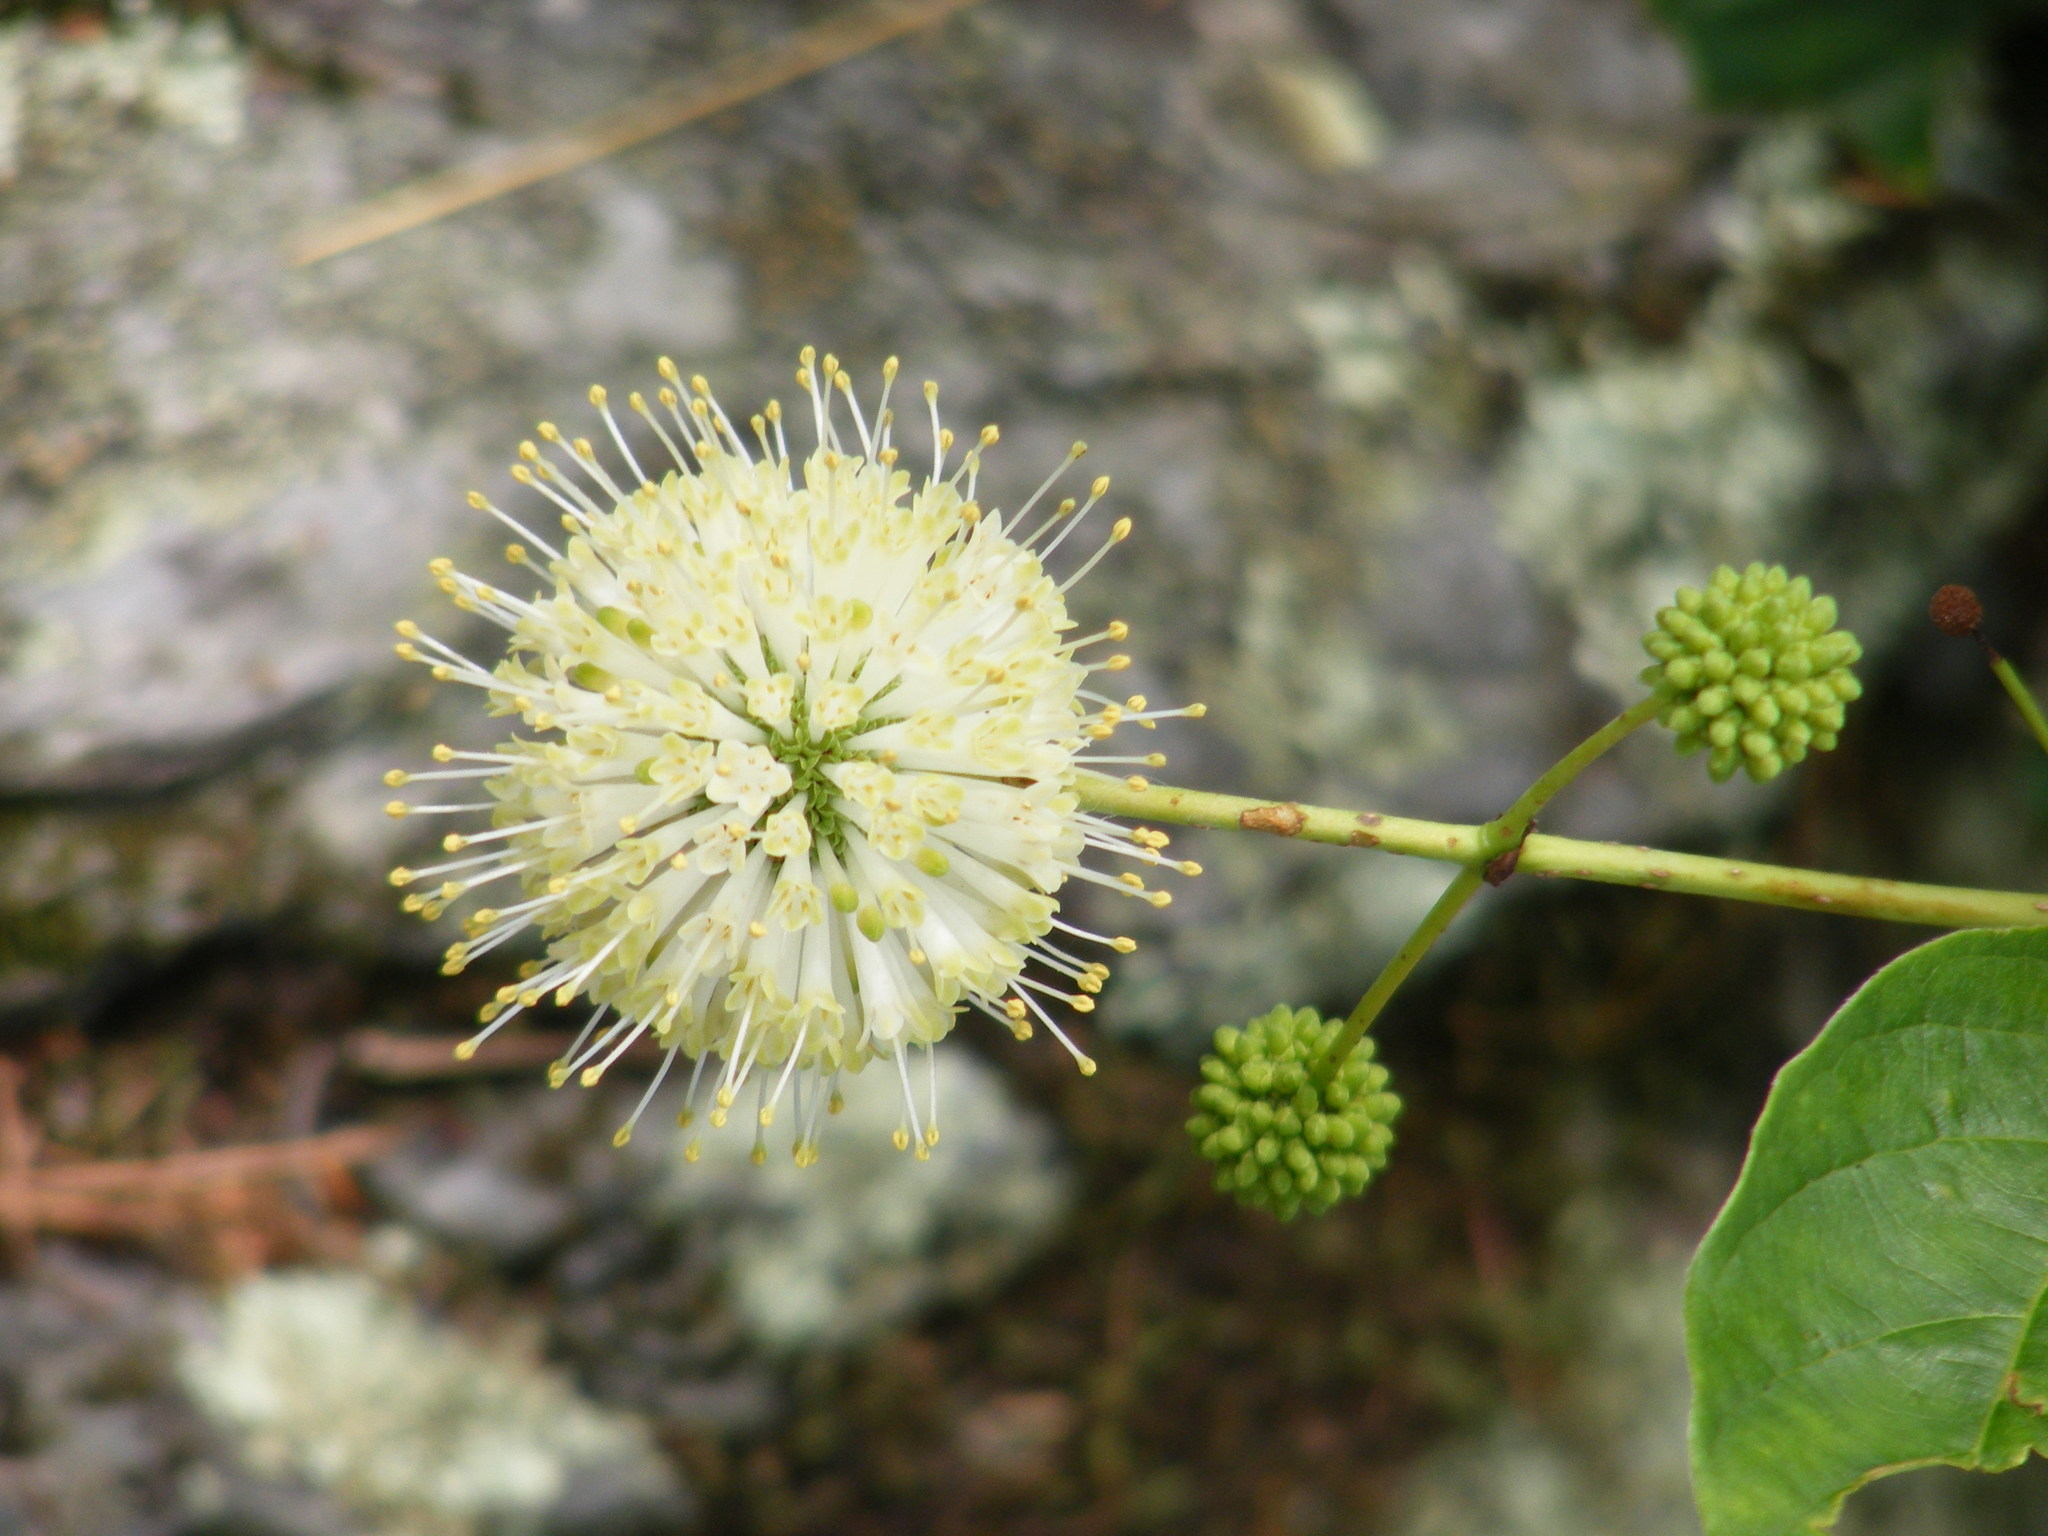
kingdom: Plantae
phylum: Tracheophyta
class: Magnoliopsida
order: Gentianales
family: Rubiaceae
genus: Cephalanthus
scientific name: Cephalanthus occidentalis
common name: Button-willow
